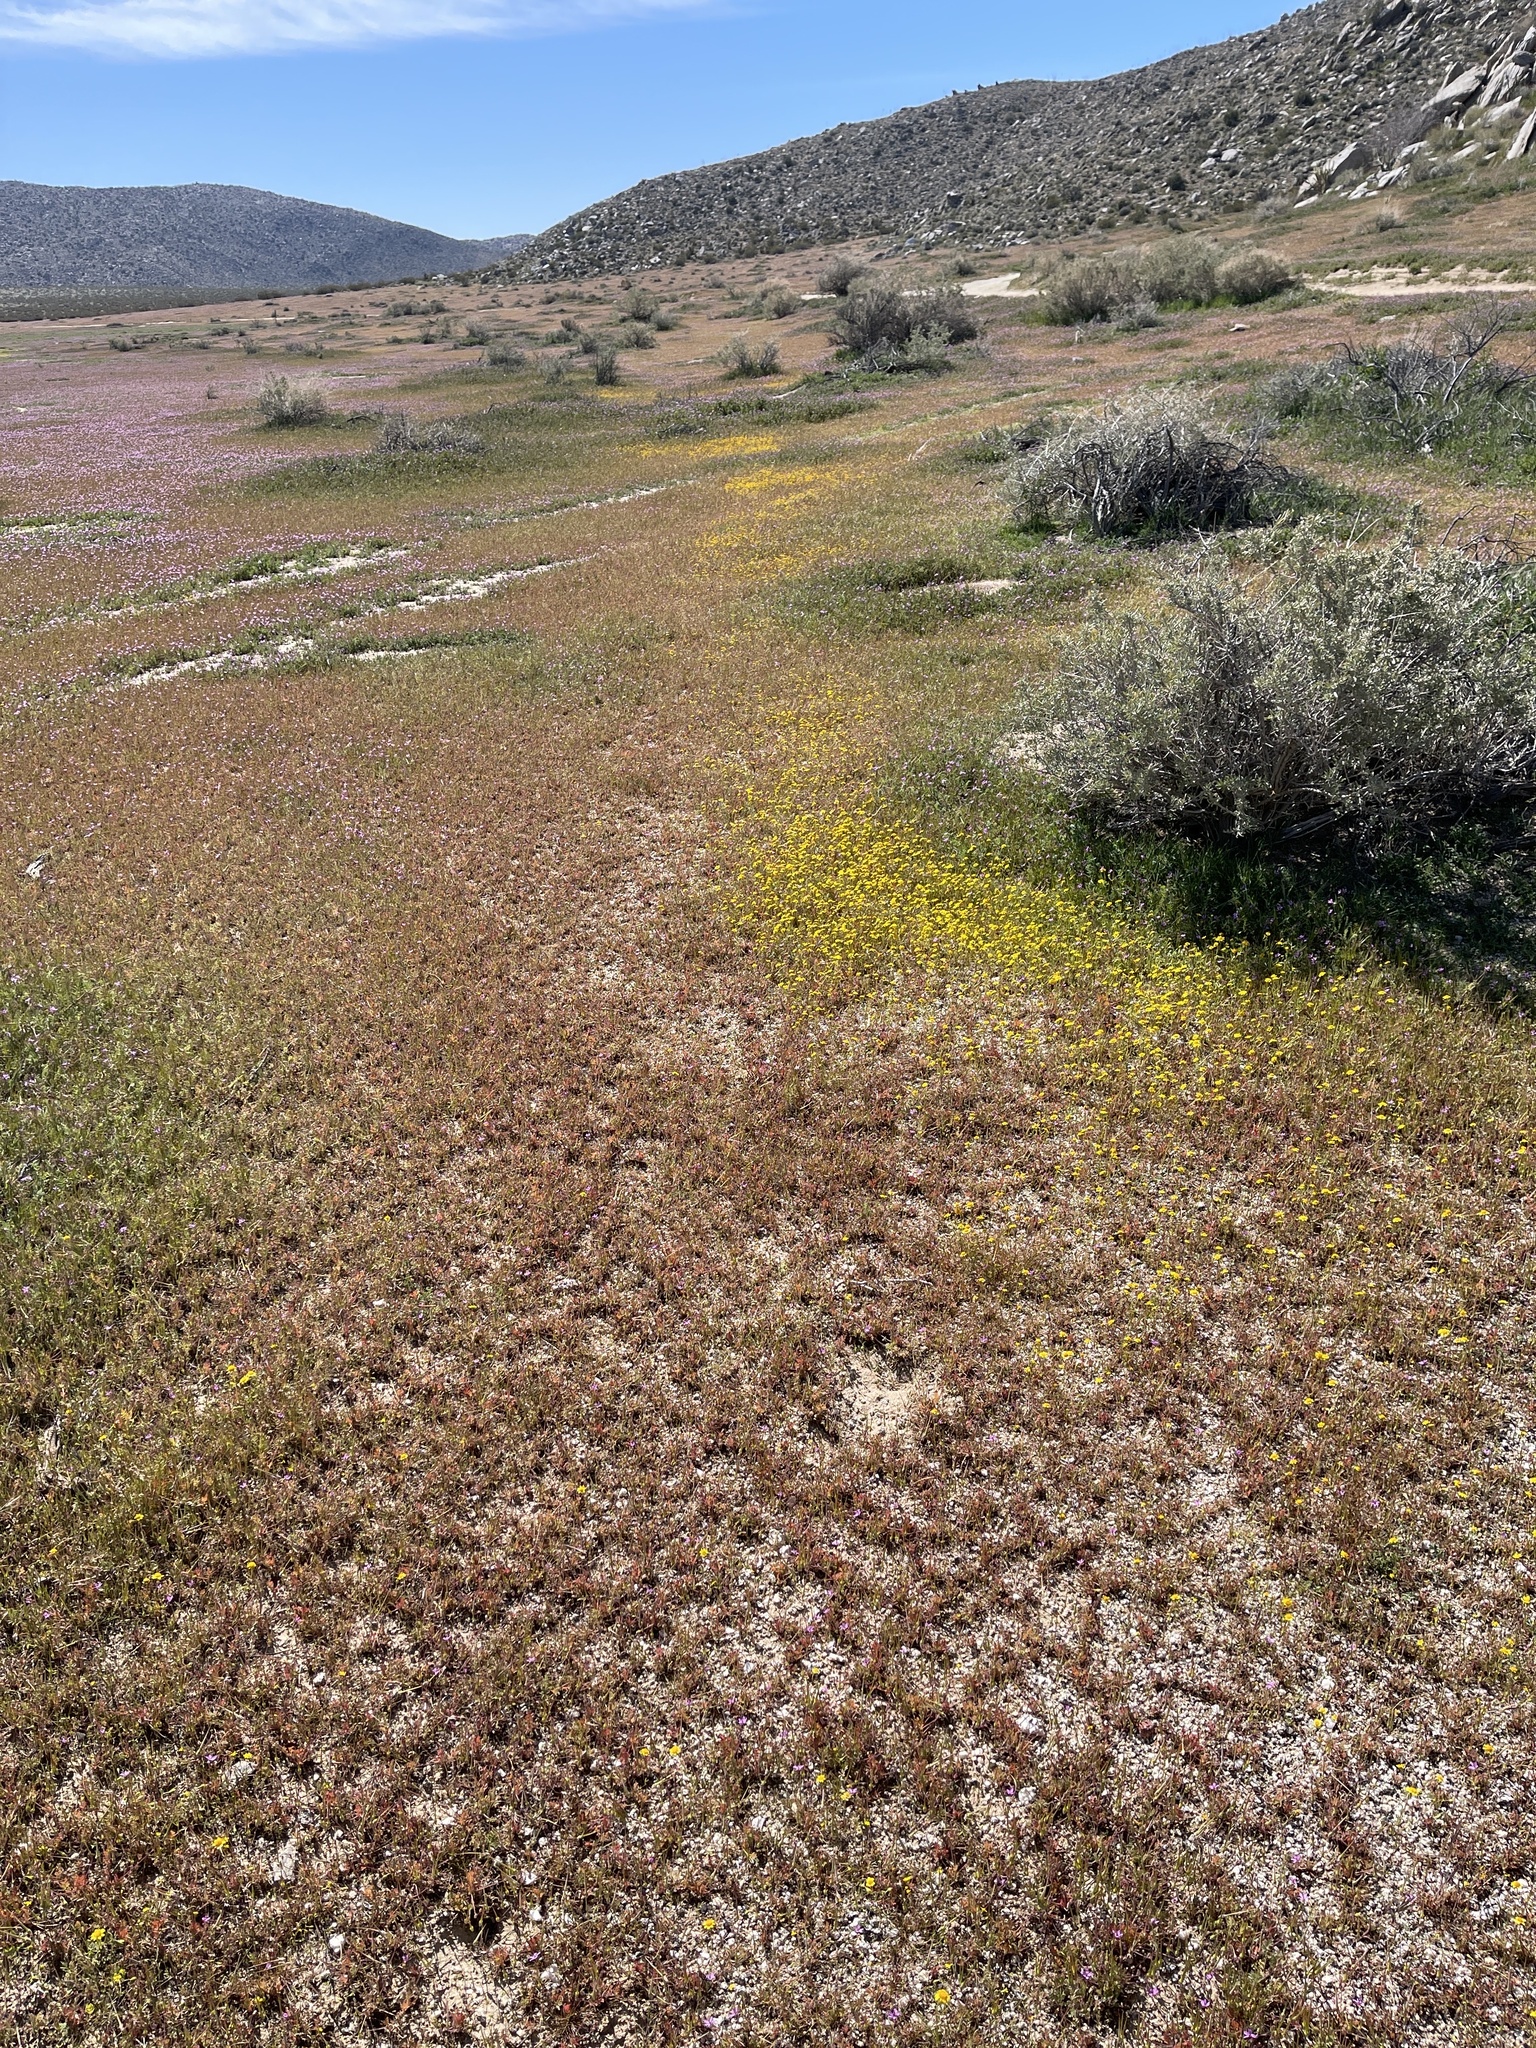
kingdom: Plantae
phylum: Tracheophyta
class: Magnoliopsida
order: Asterales
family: Asteraceae
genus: Lasthenia
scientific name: Lasthenia gracilis
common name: Common goldfields
